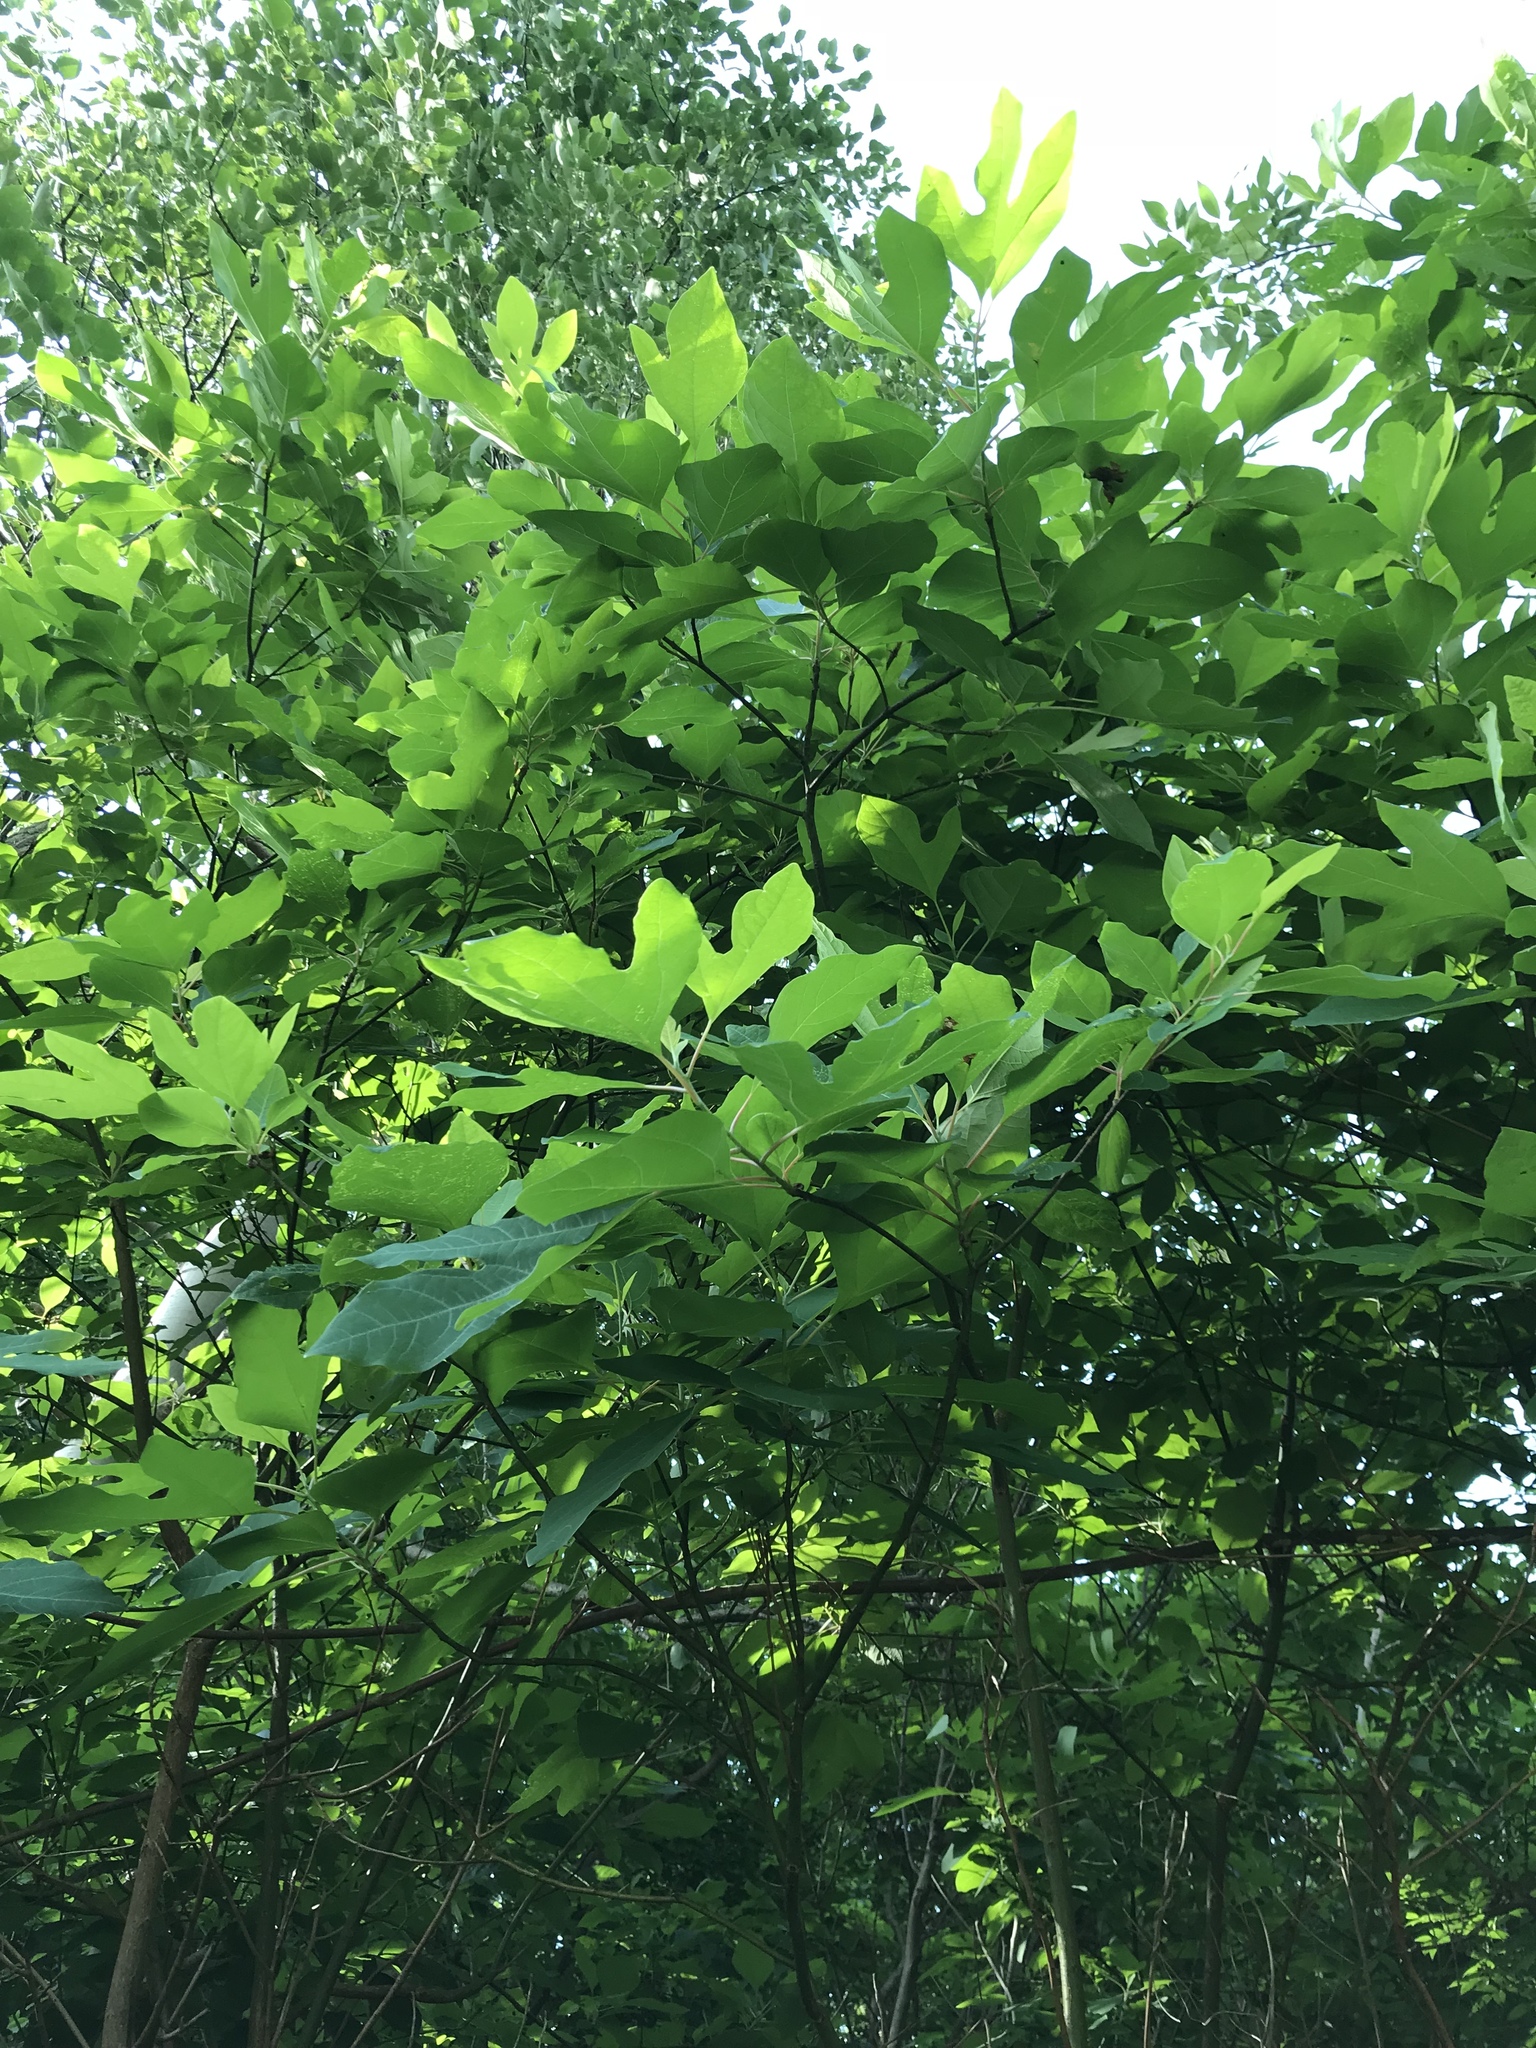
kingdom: Plantae
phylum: Tracheophyta
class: Magnoliopsida
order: Laurales
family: Lauraceae
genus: Sassafras
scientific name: Sassafras albidum
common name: Sassafras
